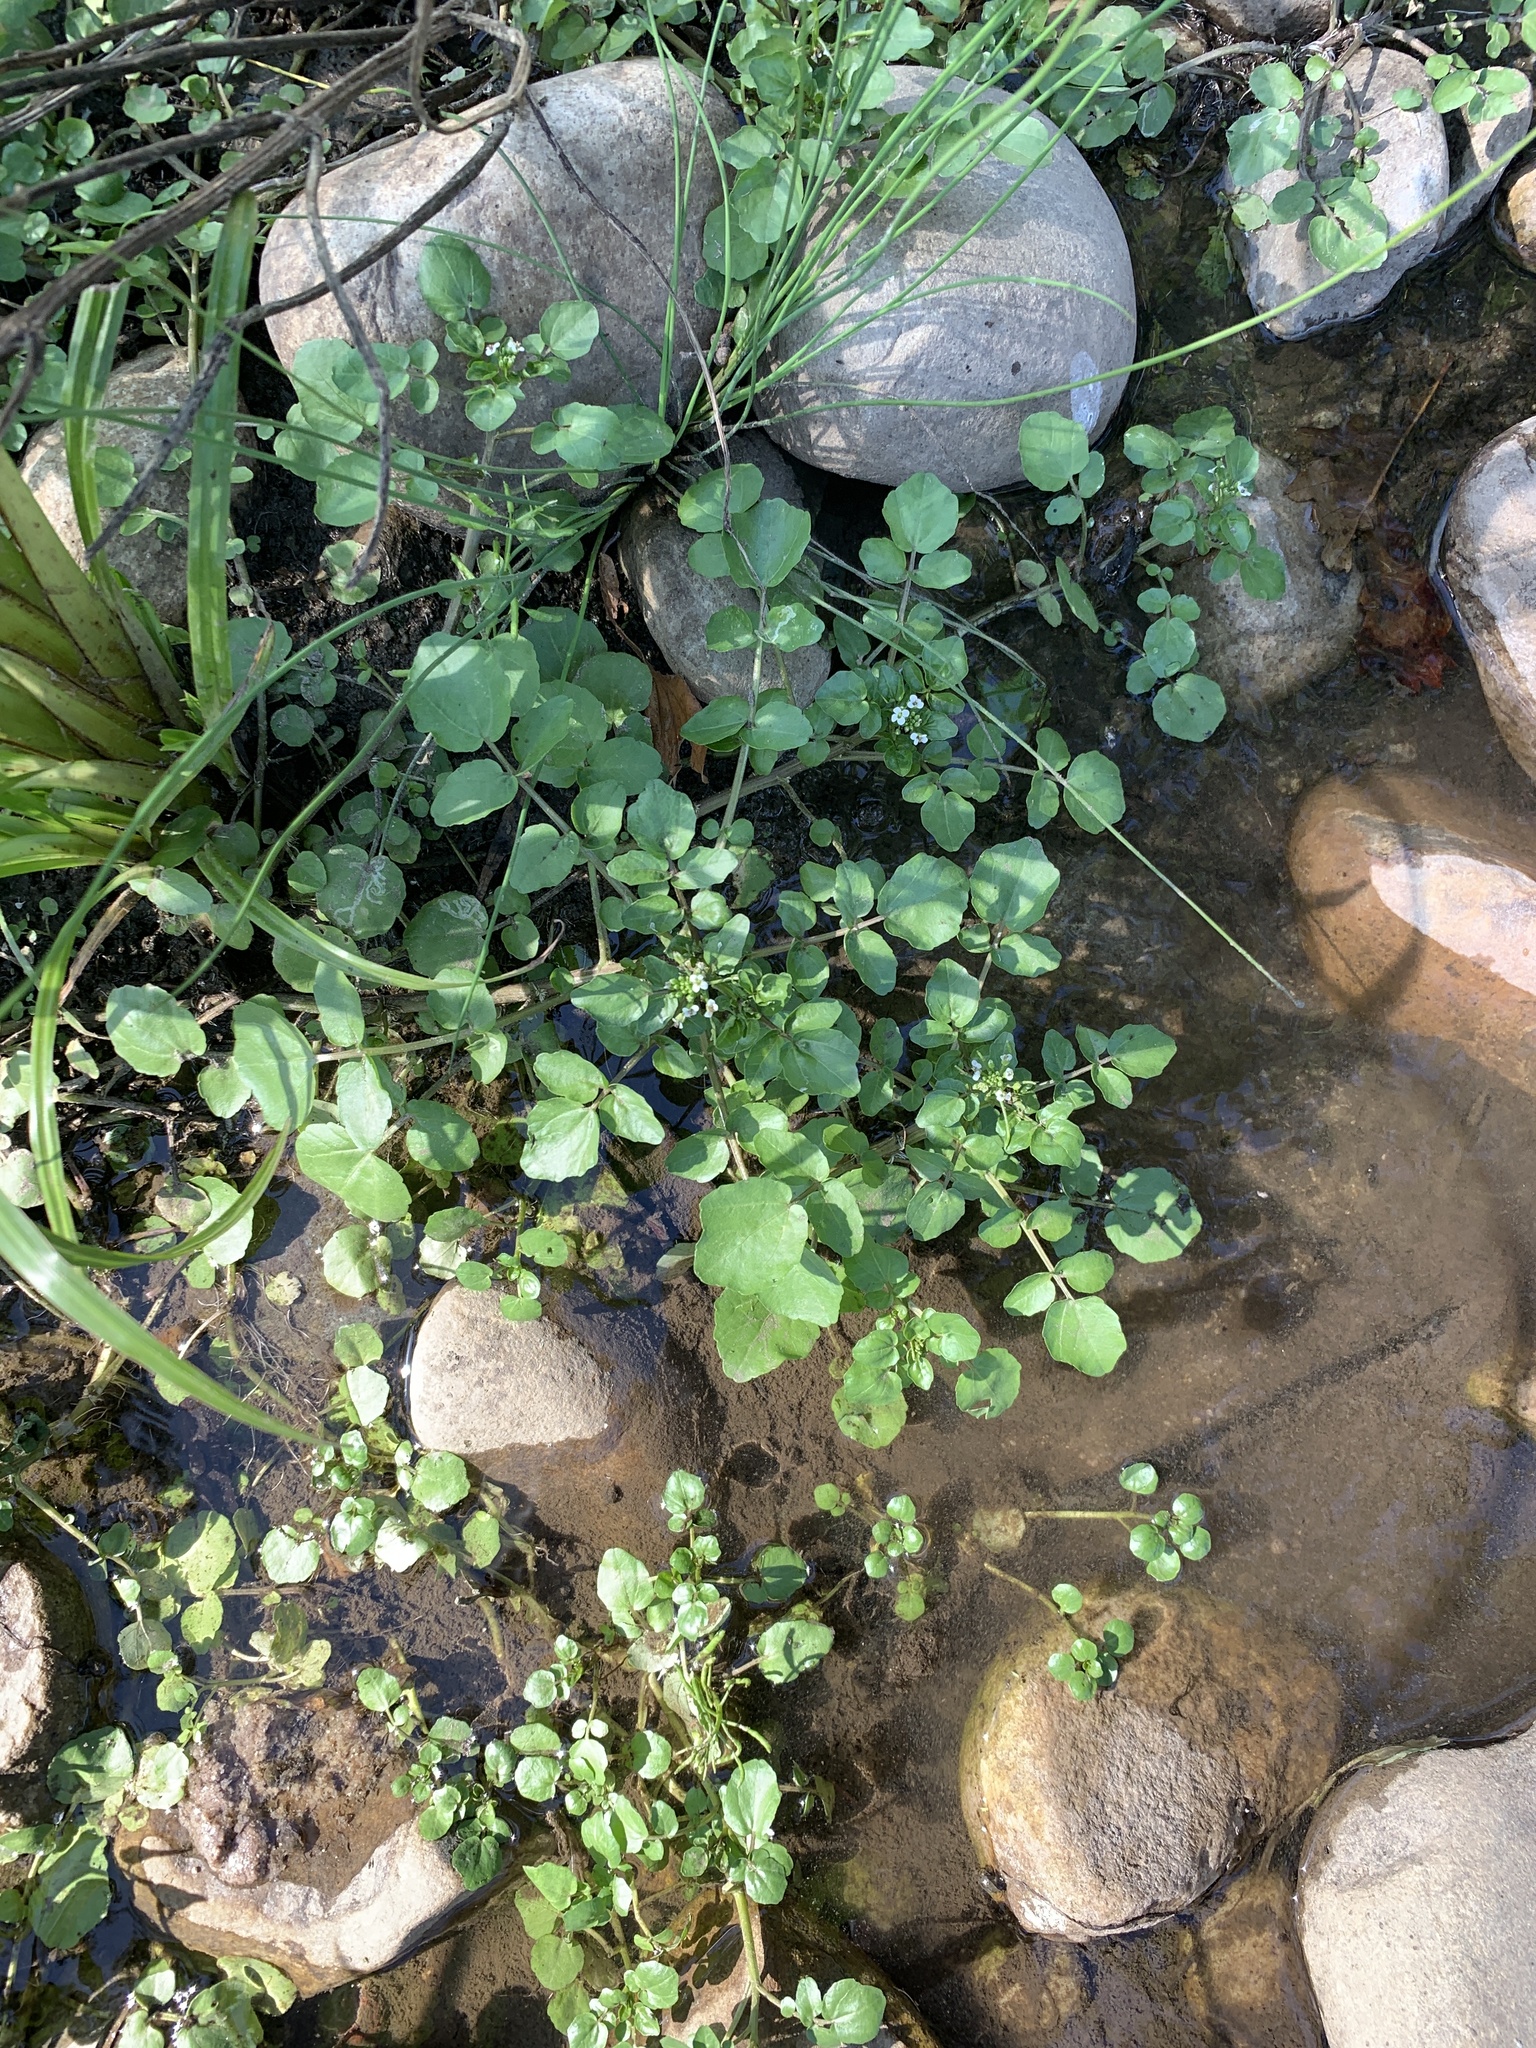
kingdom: Plantae
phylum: Tracheophyta
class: Magnoliopsida
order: Brassicales
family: Brassicaceae
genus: Nasturtium
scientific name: Nasturtium officinale
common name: Watercress
